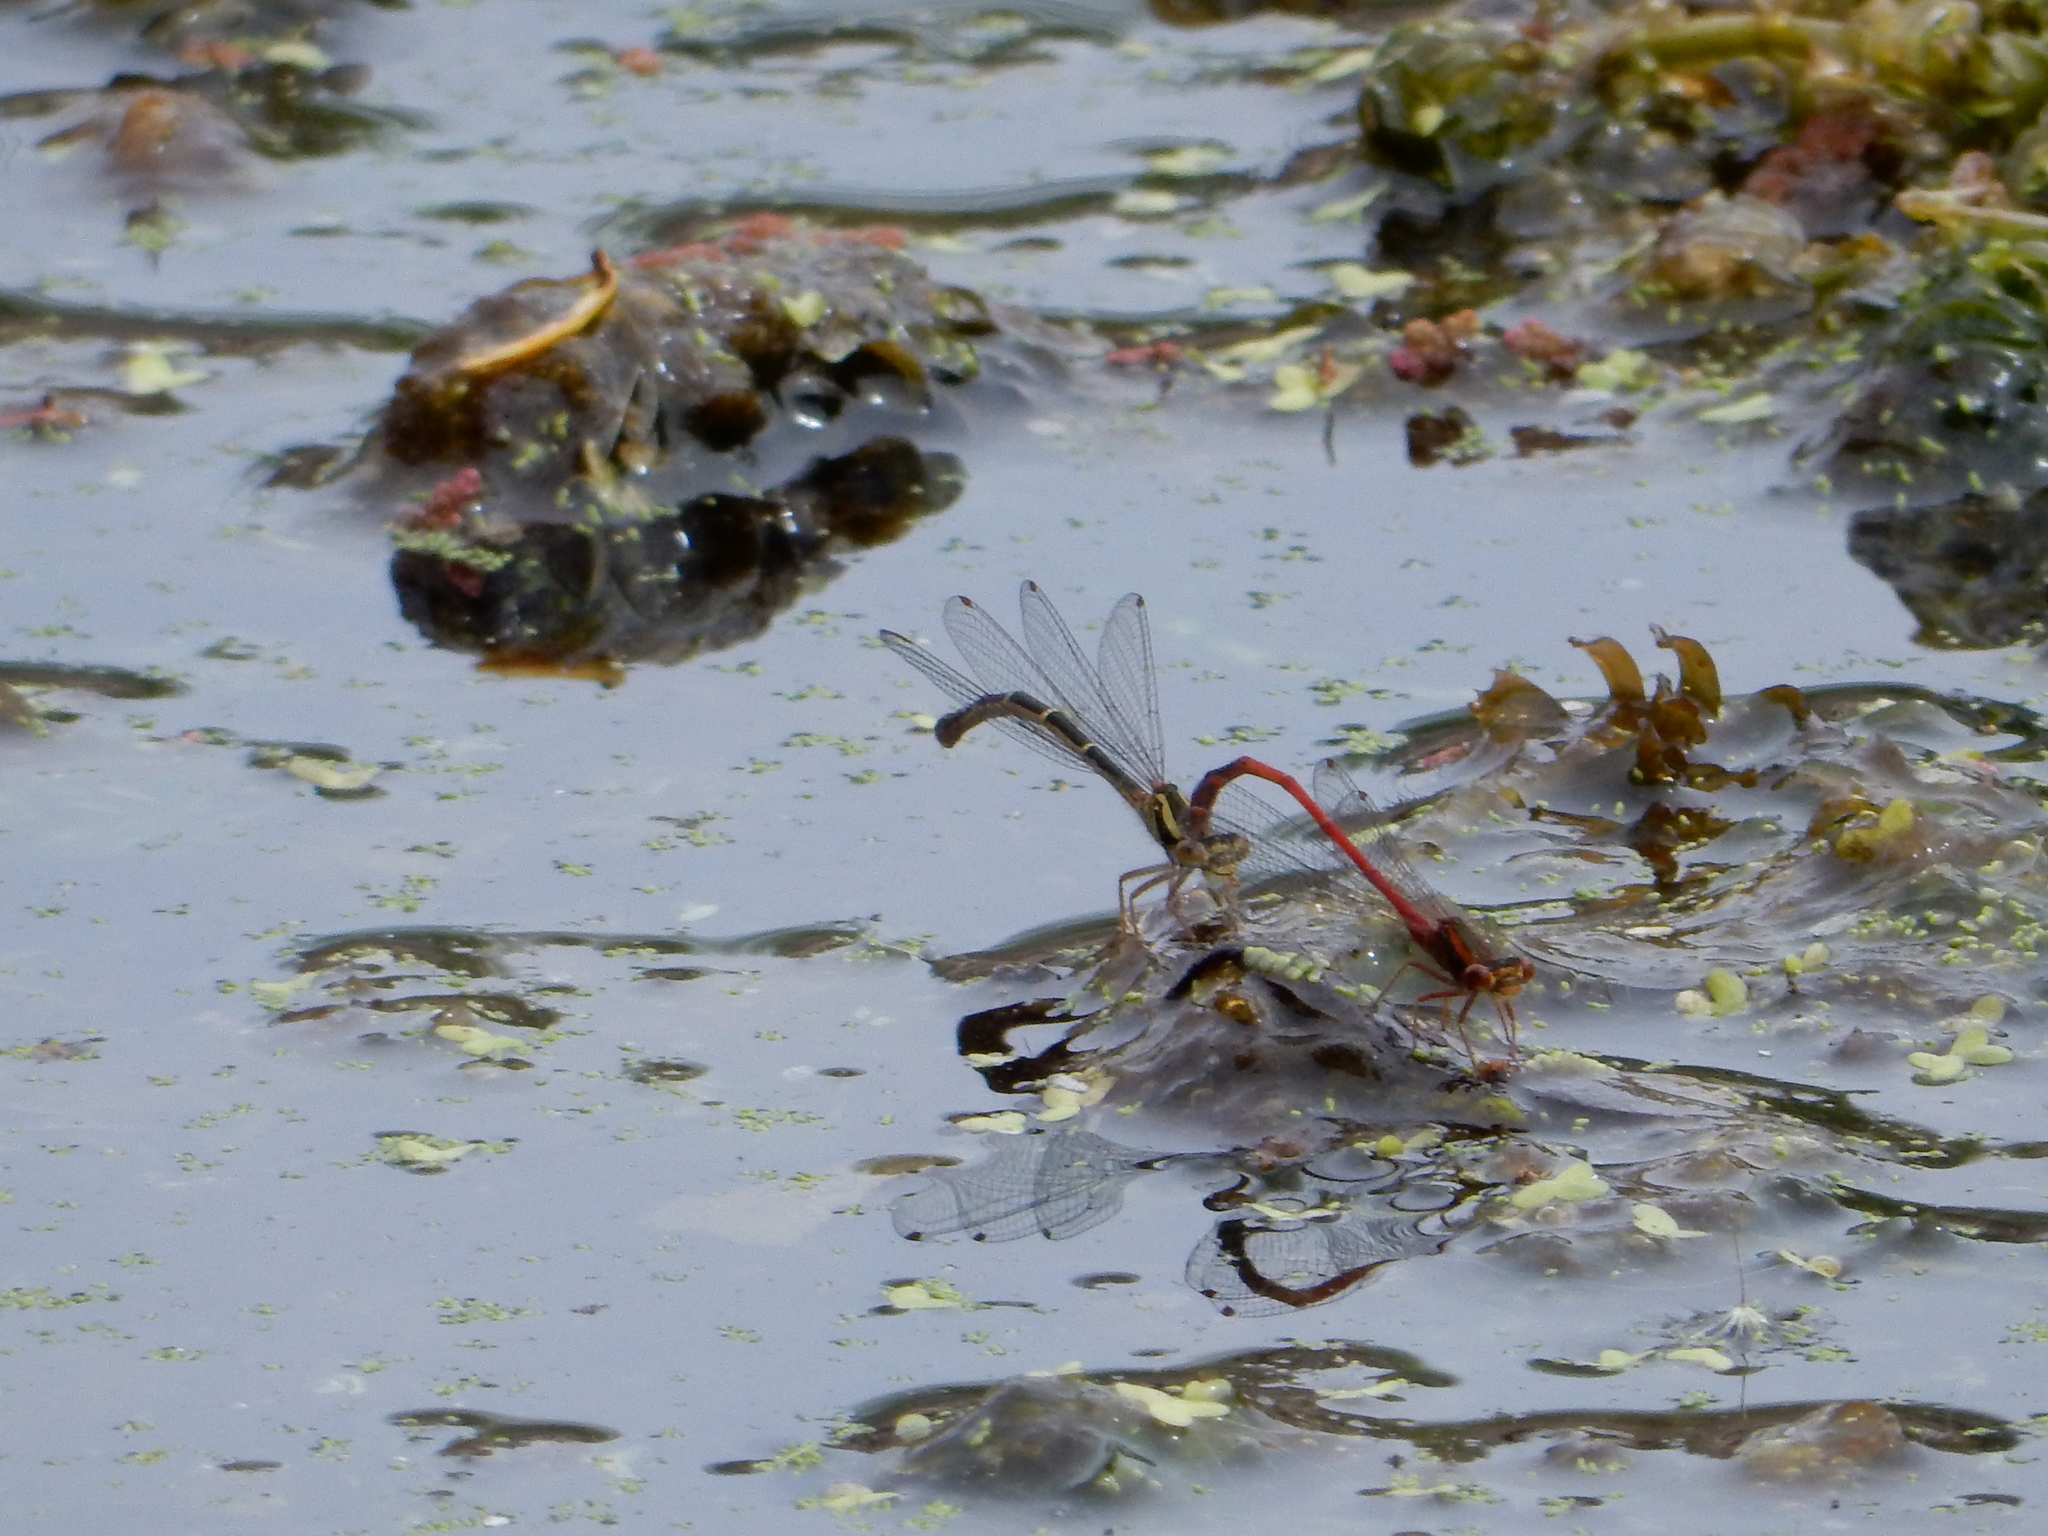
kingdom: Animalia
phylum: Arthropoda
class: Insecta
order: Odonata
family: Coenagrionidae
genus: Xanthocnemis
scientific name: Xanthocnemis zealandica
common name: Common redcoat damselfly
